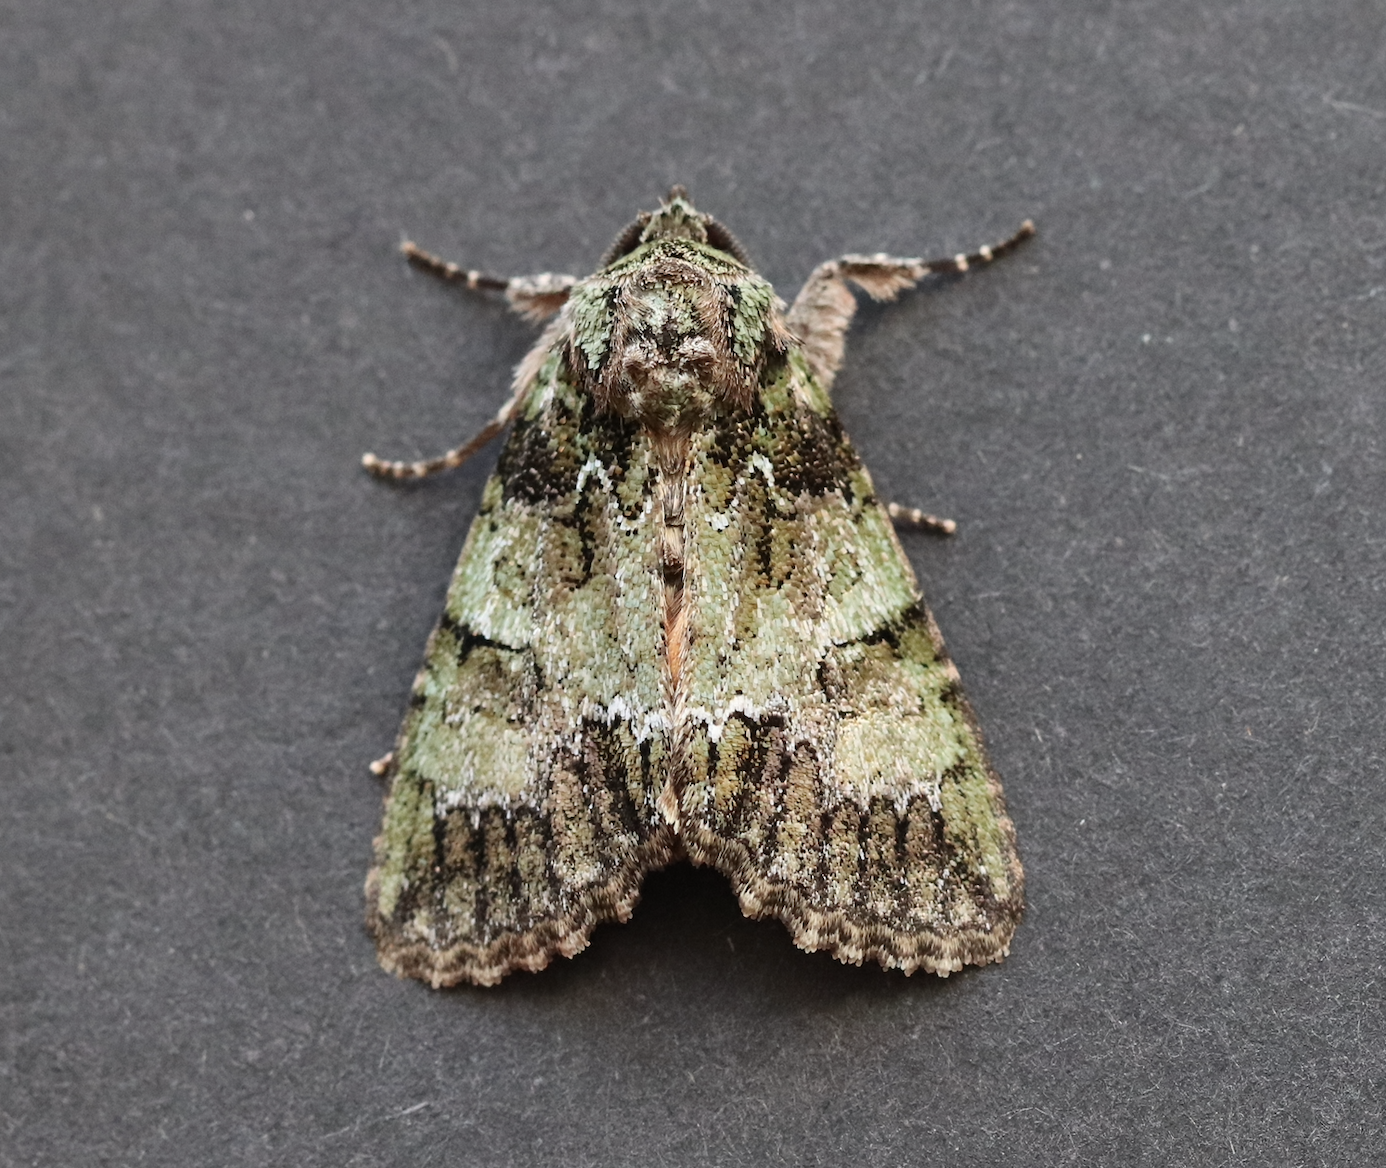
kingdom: Animalia
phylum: Arthropoda
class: Insecta
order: Lepidoptera
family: Noctuidae
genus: Polyphaenis
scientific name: Polyphaenis sericata
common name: Guernsey underwing
